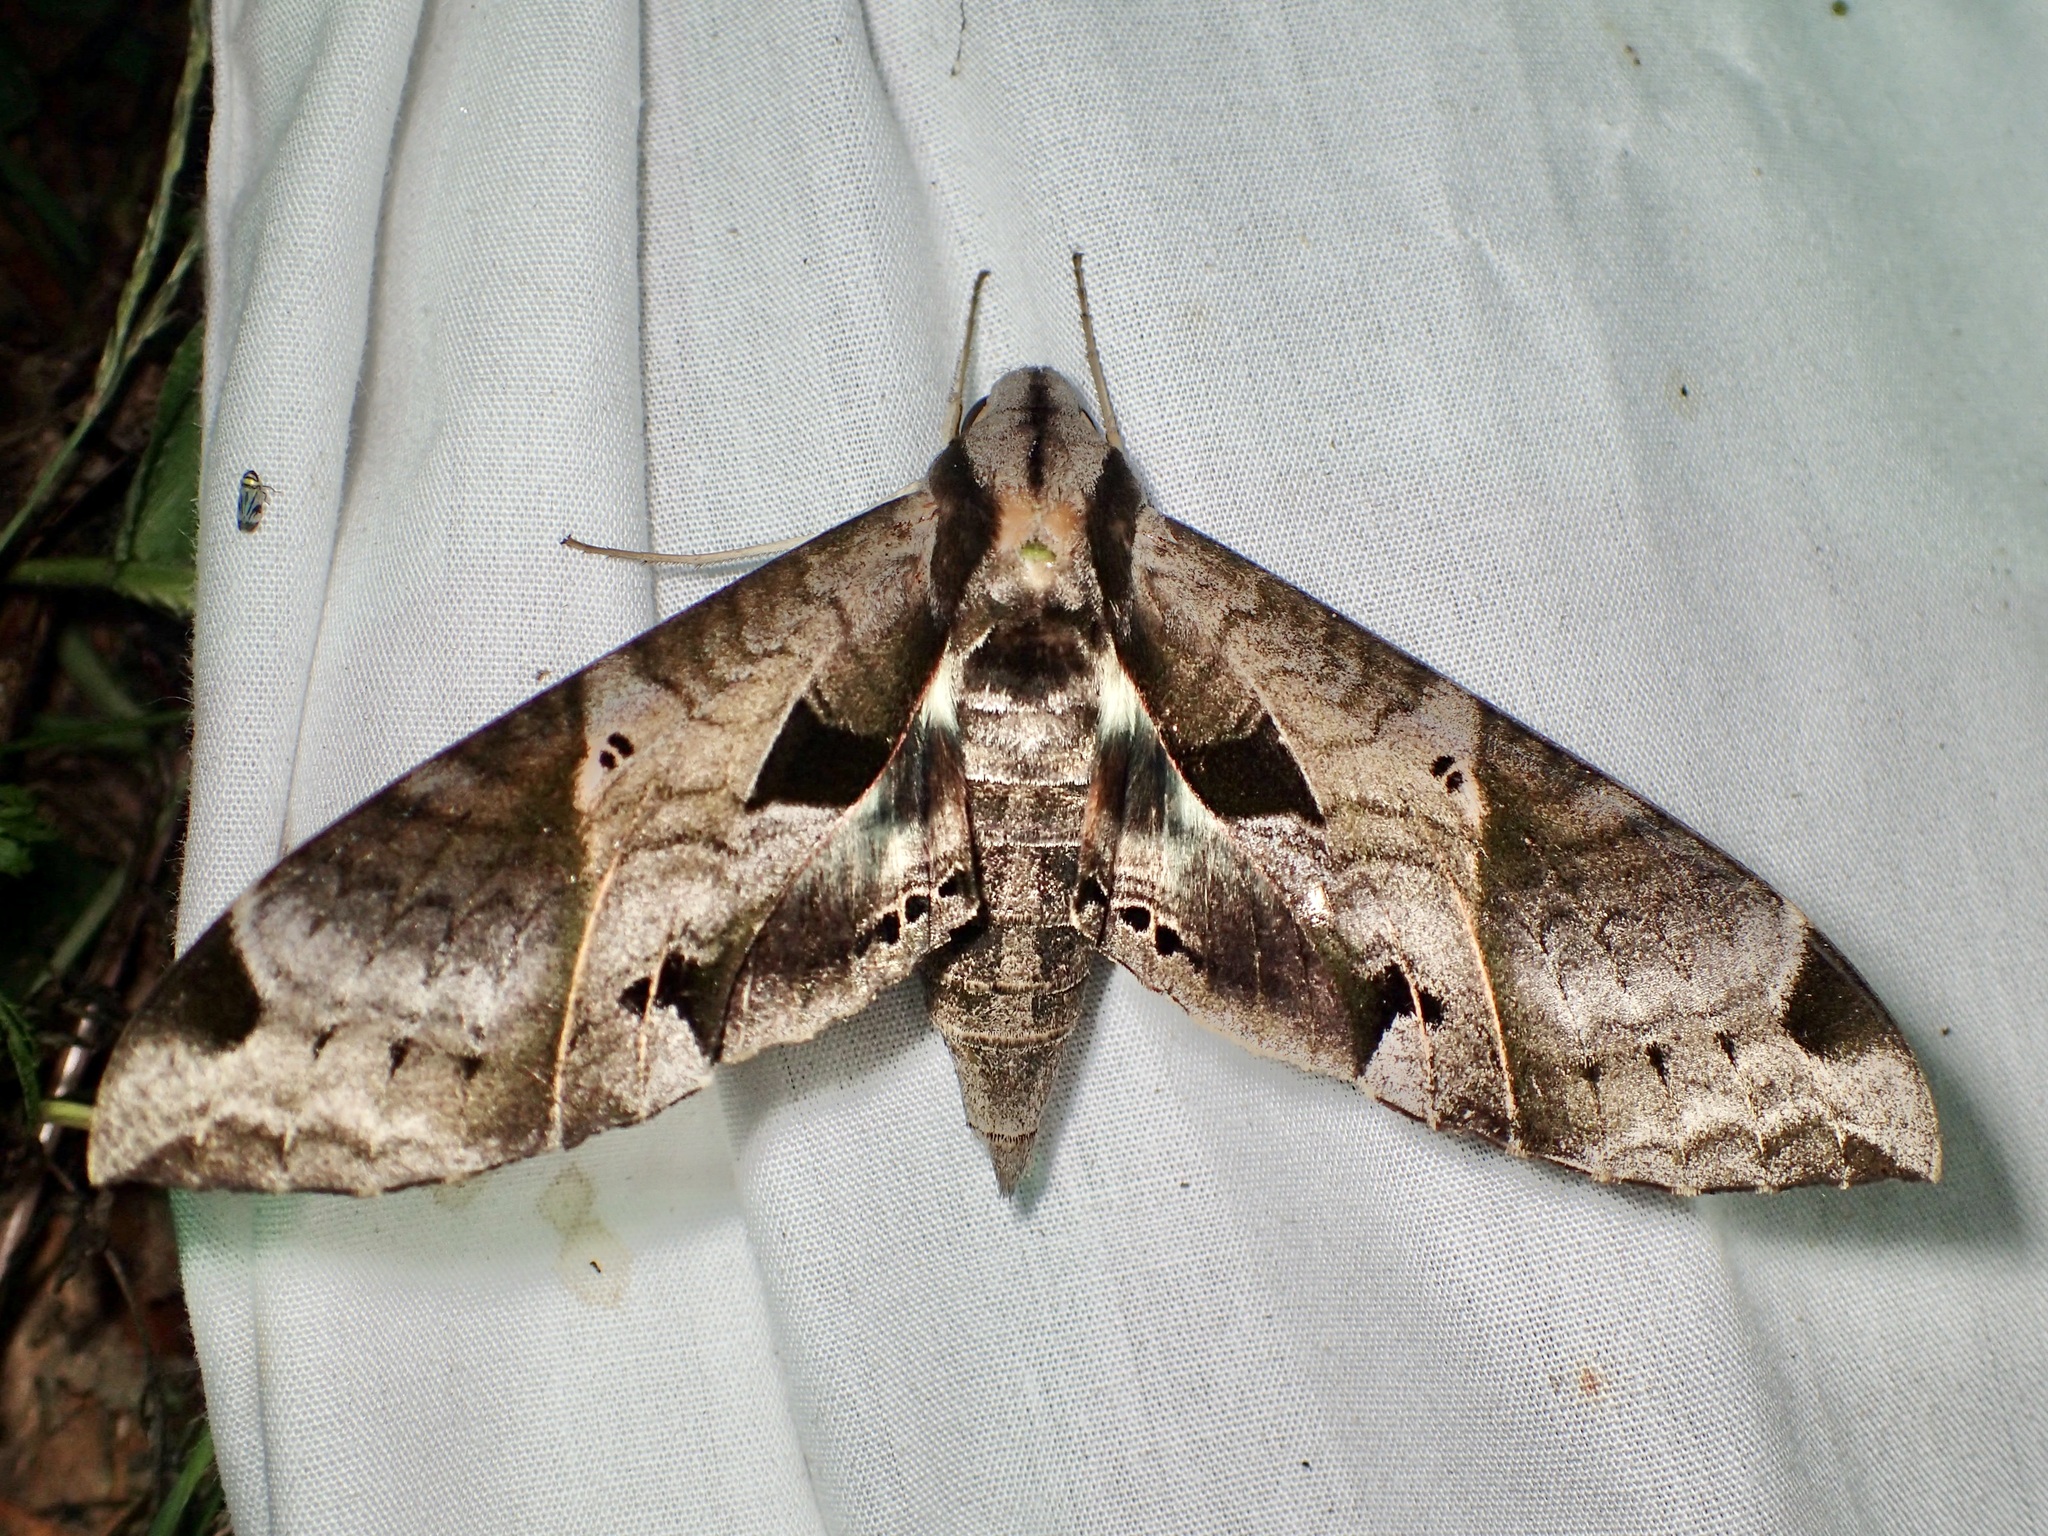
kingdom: Animalia
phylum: Arthropoda
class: Insecta
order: Lepidoptera
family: Sphingidae
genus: Eumorpha
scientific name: Eumorpha satellitia
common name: Satellite sphinx
